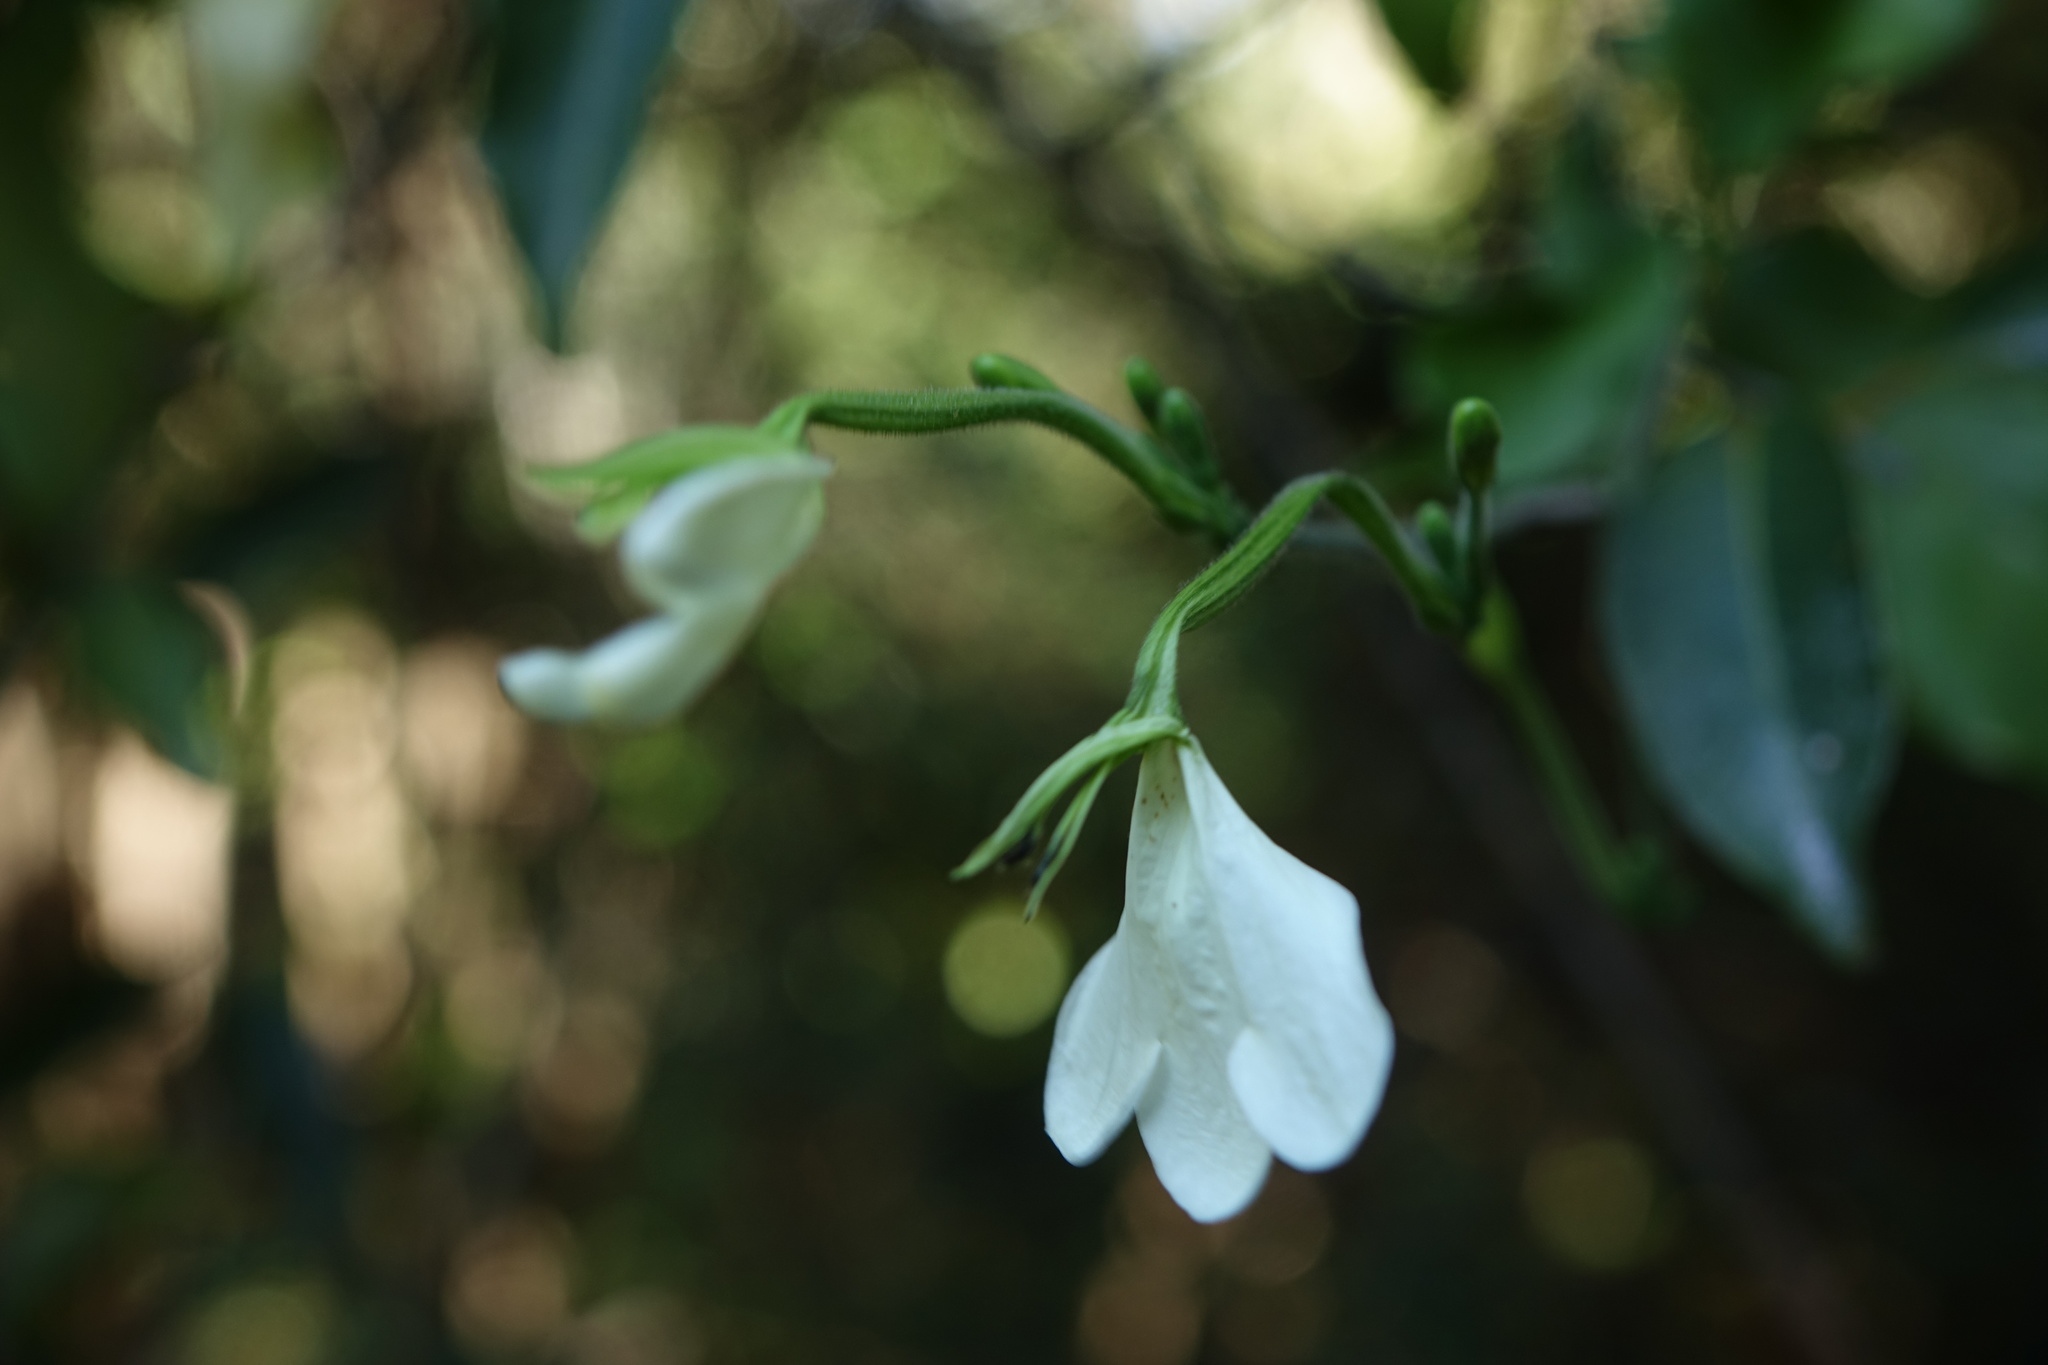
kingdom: Plantae
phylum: Tracheophyta
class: Magnoliopsida
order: Lamiales
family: Acanthaceae
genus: Rhinacanthus
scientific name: Rhinacanthus gracilis
